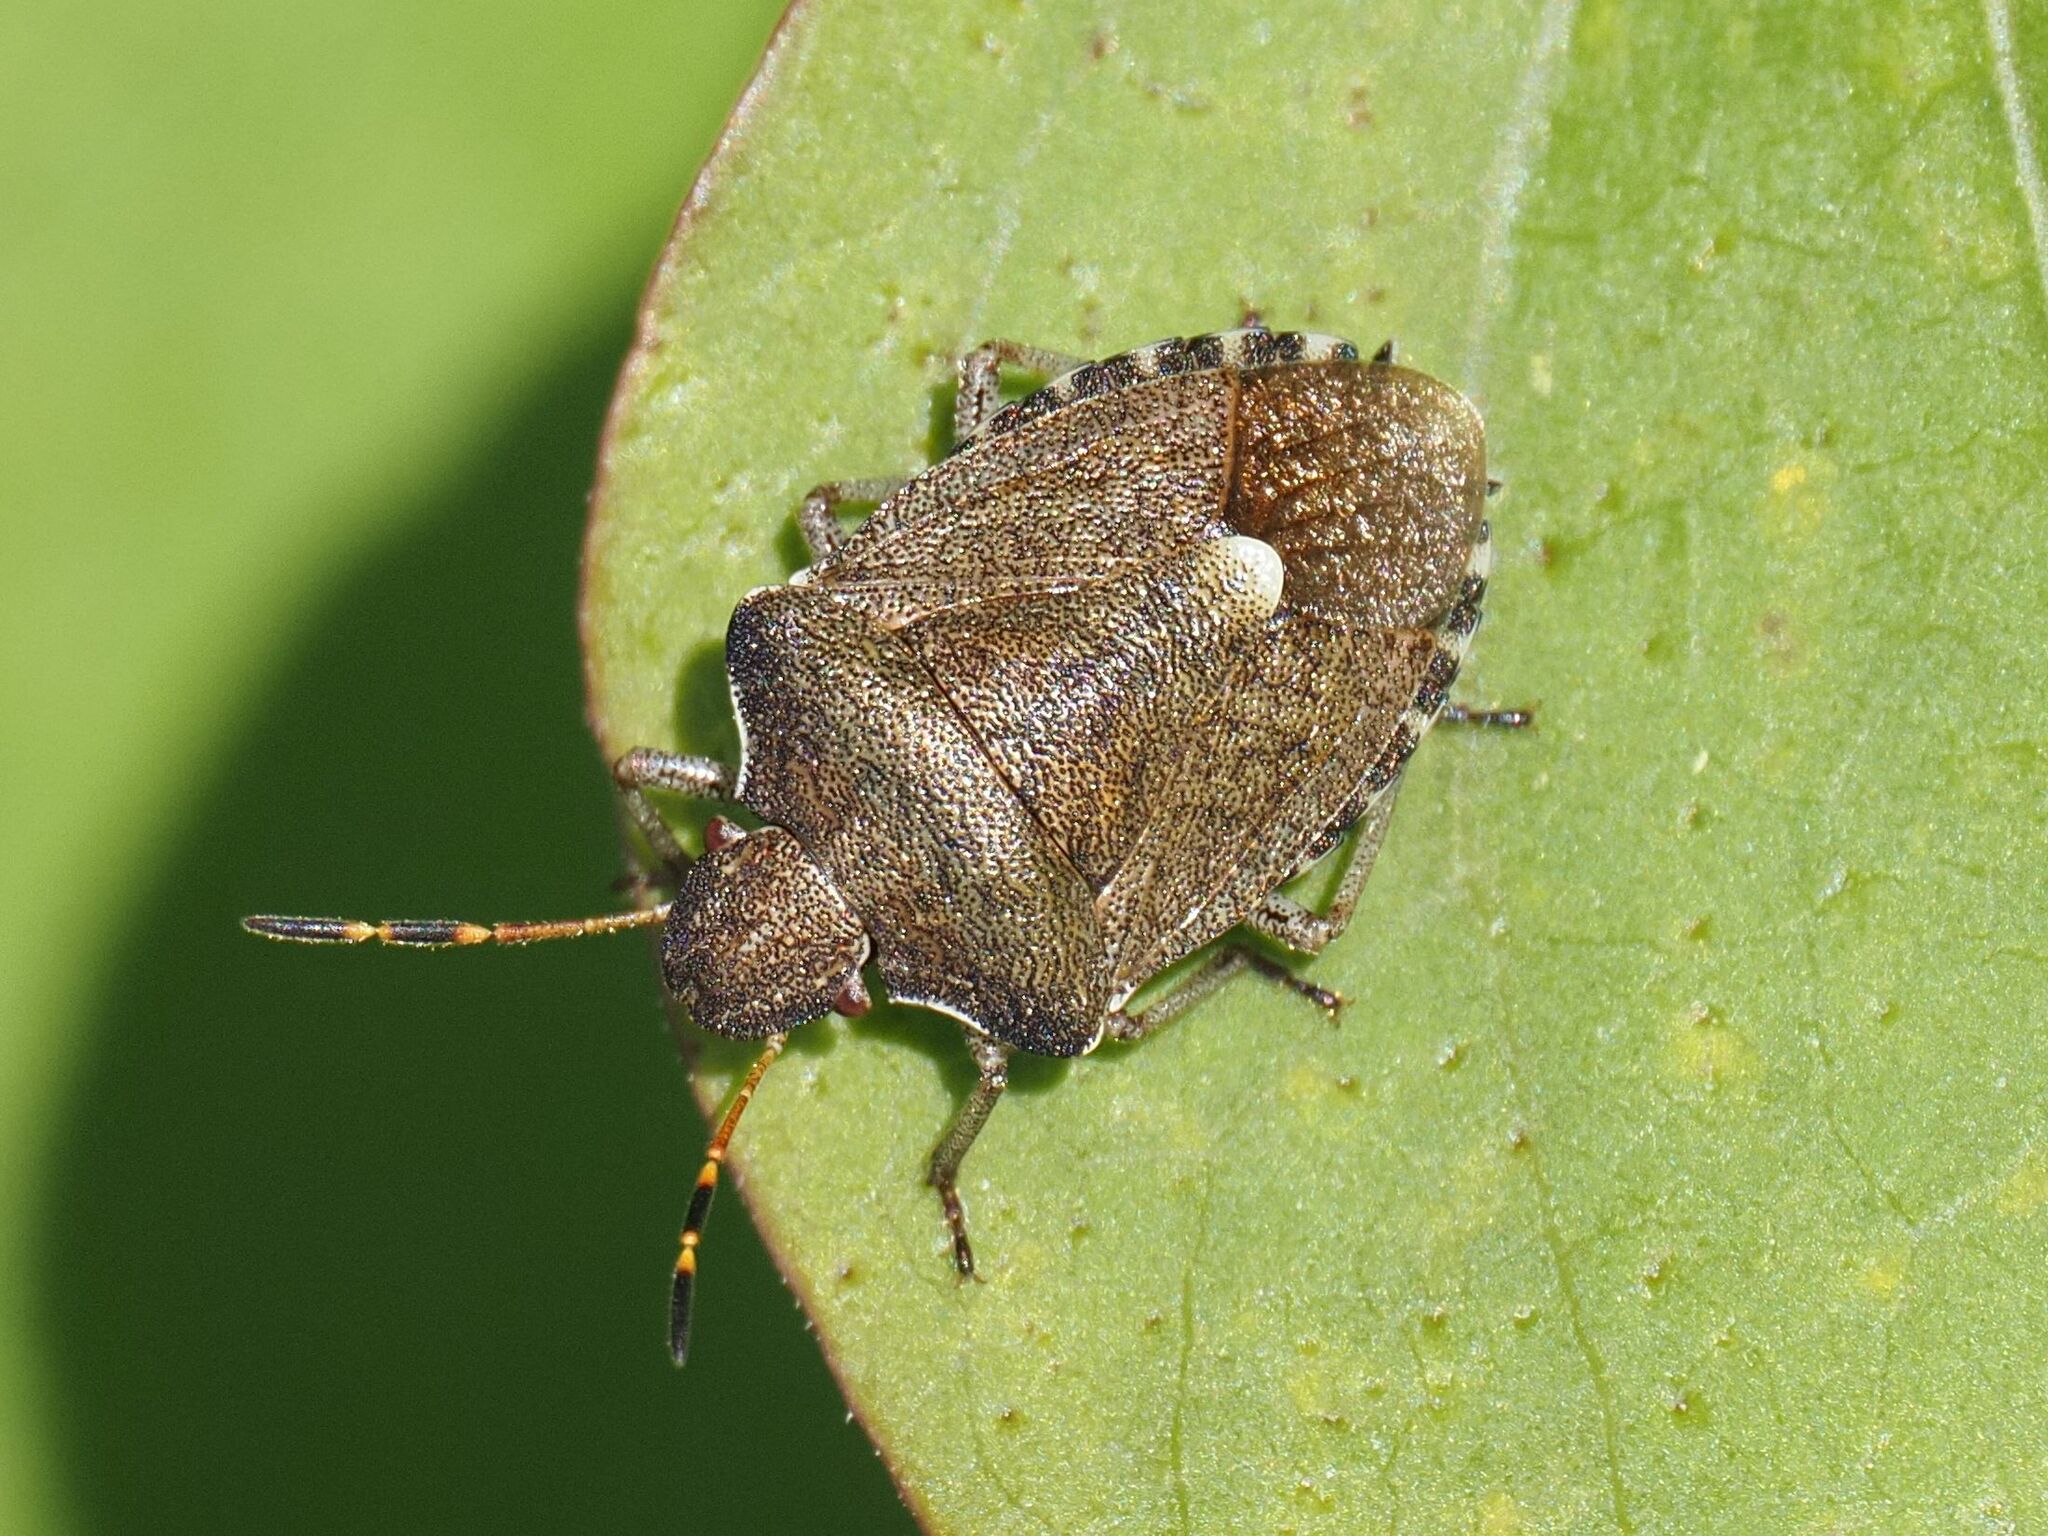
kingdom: Animalia
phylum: Arthropoda
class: Insecta
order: Hemiptera
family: Pentatomidae
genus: Holcostethus
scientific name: Holcostethus strictus
